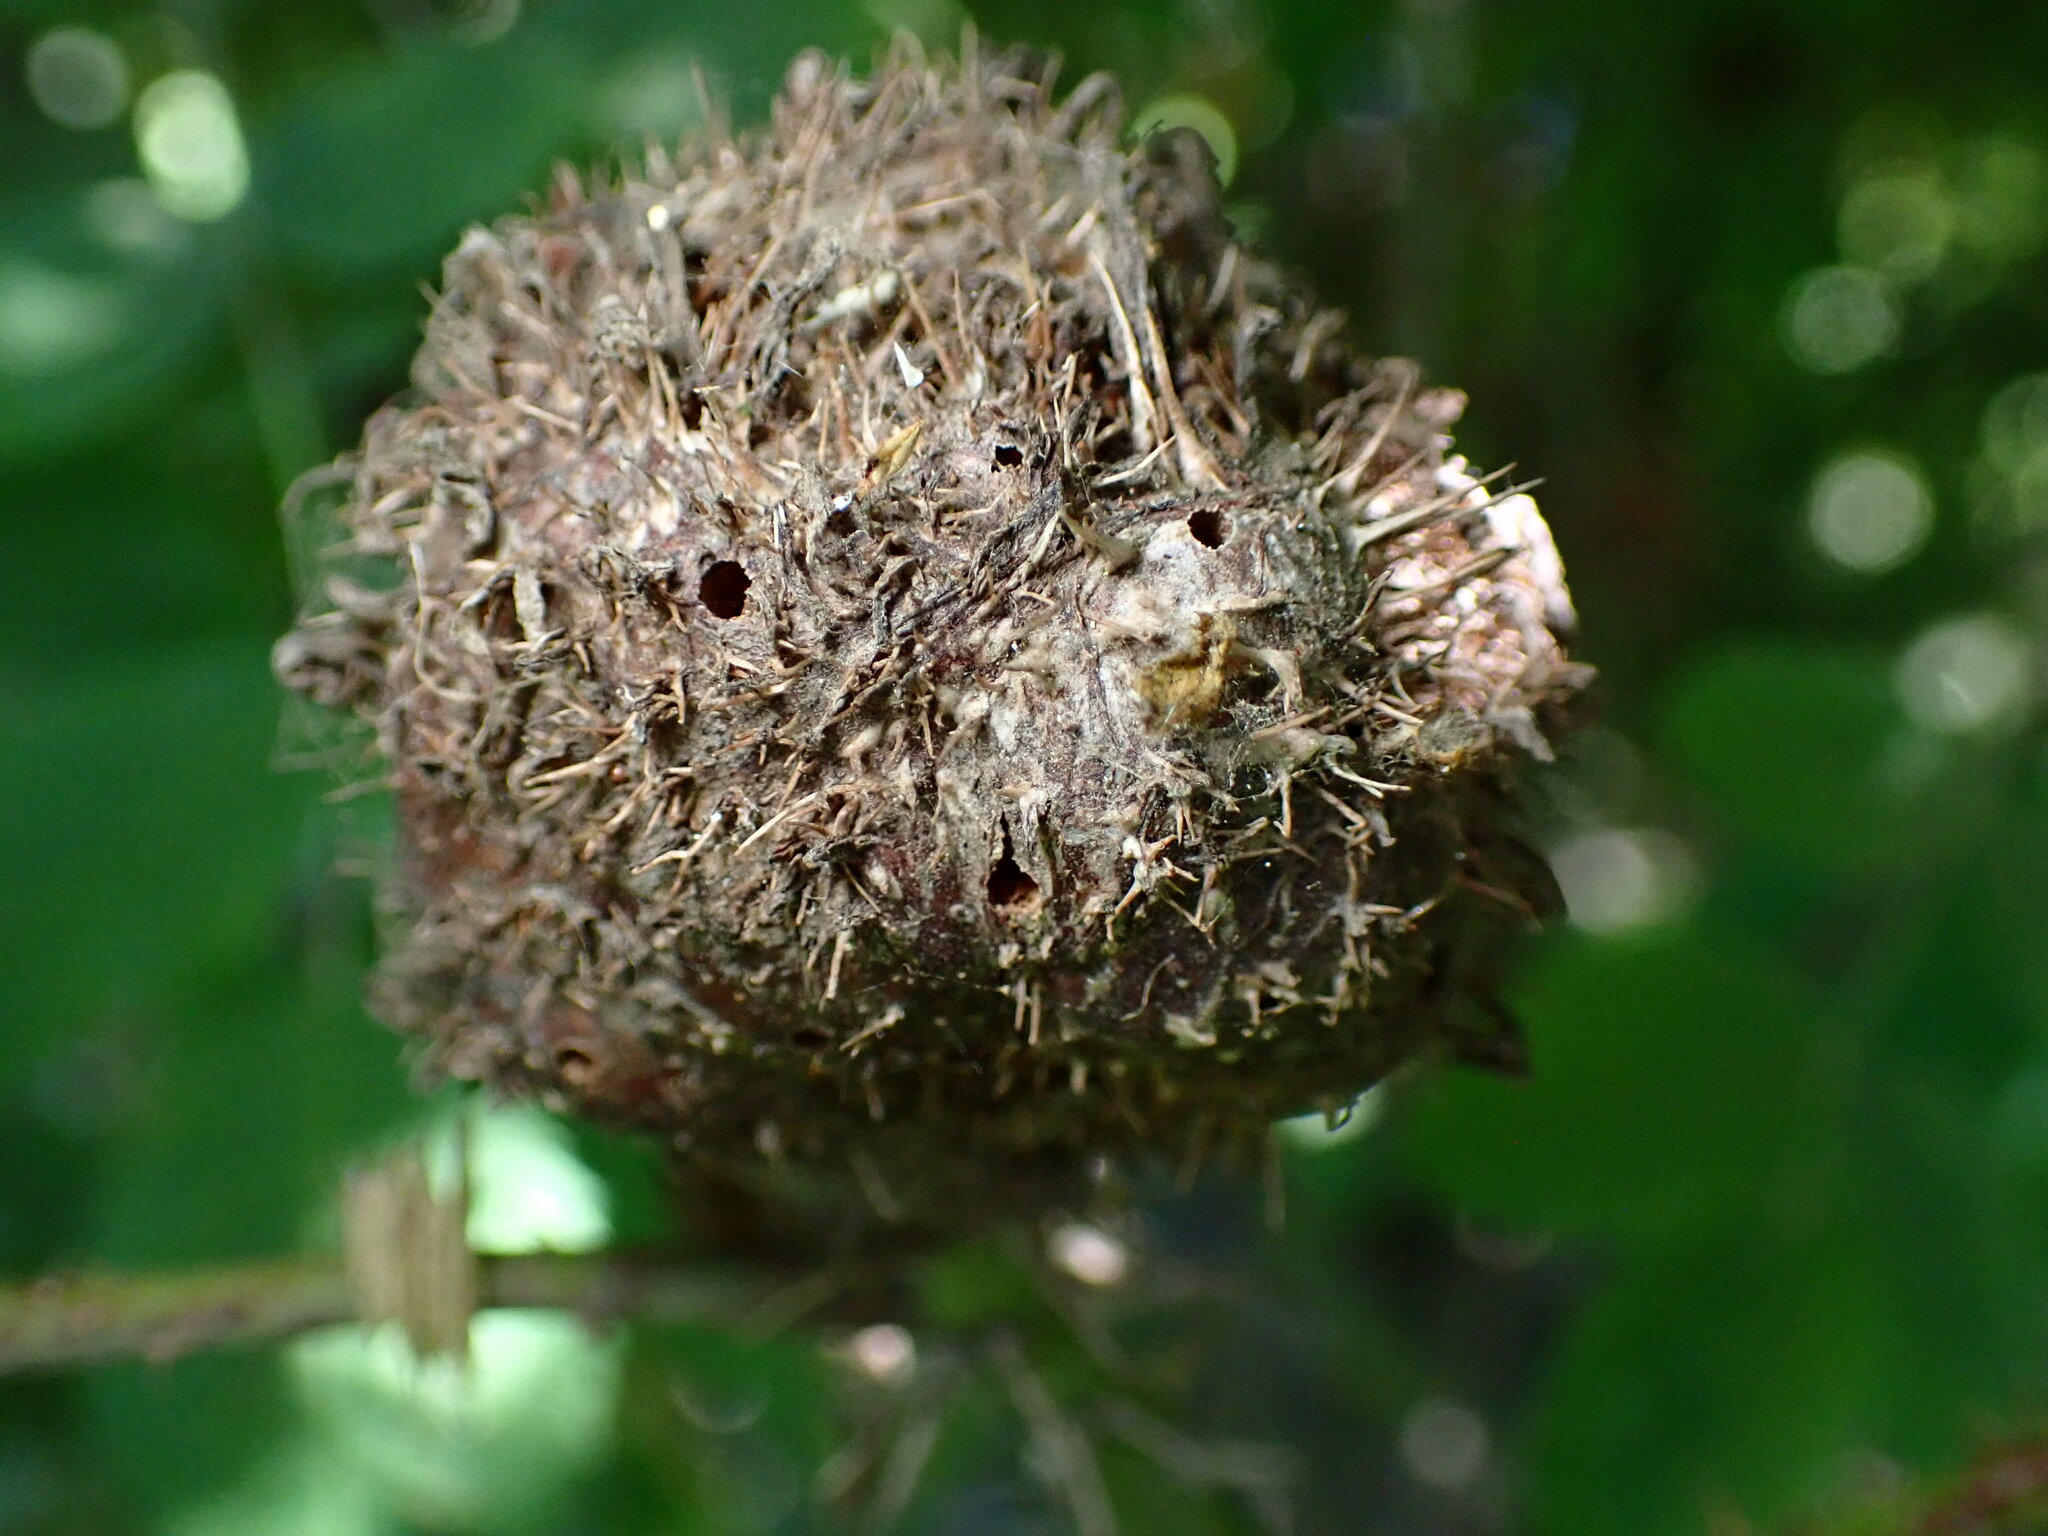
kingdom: Animalia
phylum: Arthropoda
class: Insecta
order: Hymenoptera
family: Cynipidae
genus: Diplolepis
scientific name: Diplolepis californica
